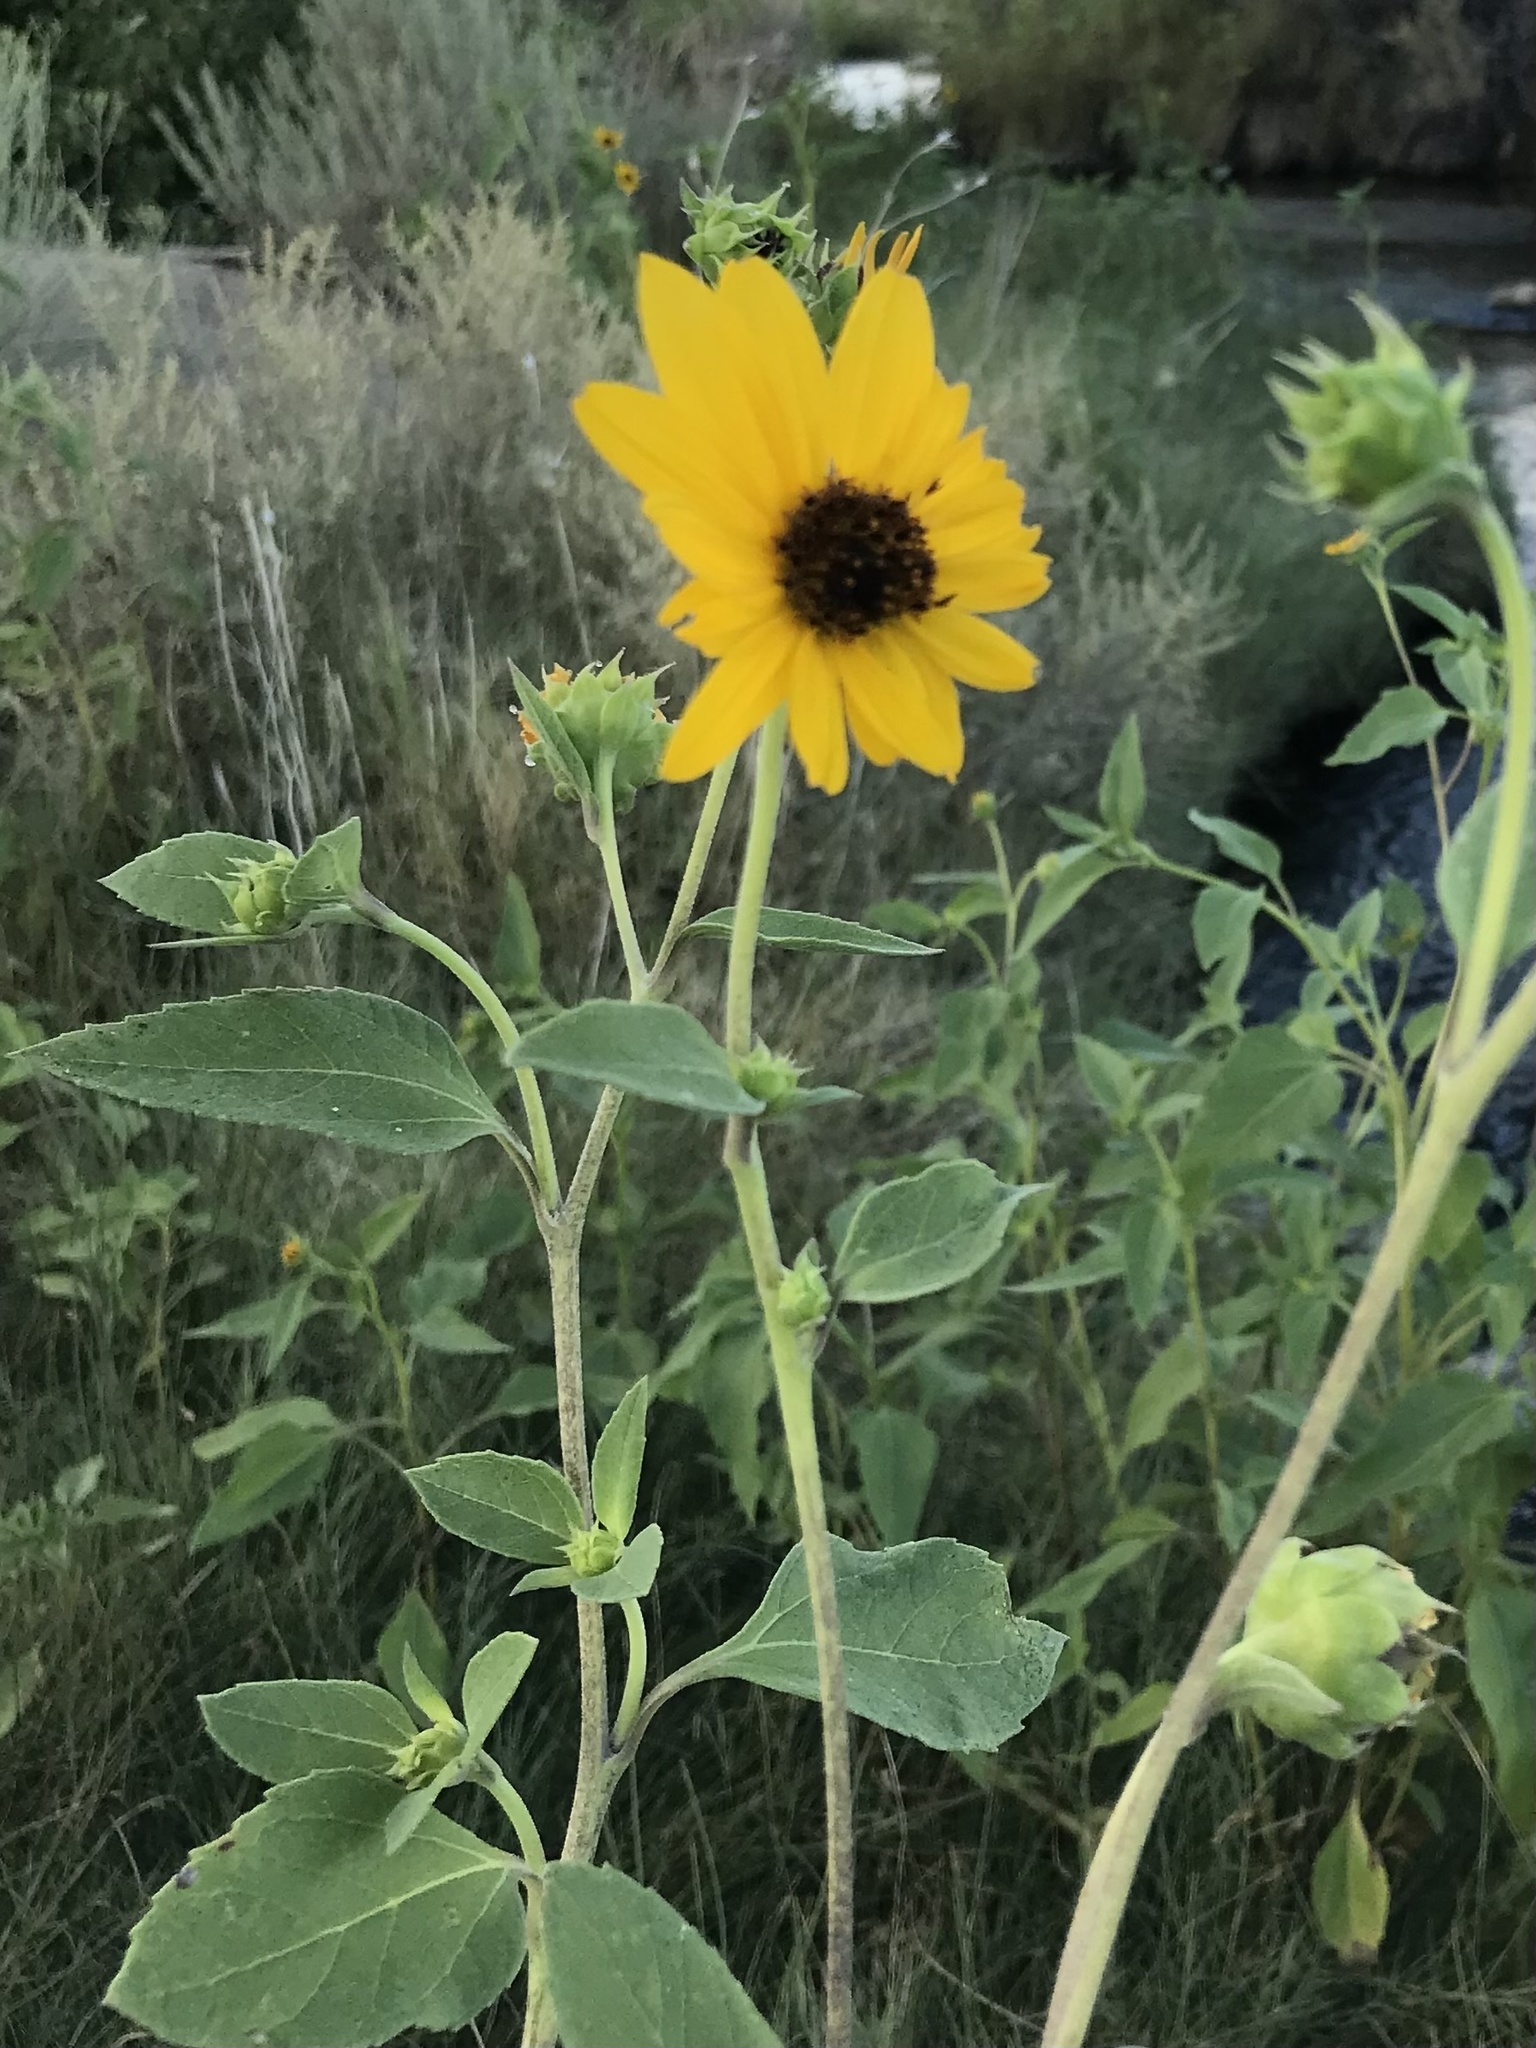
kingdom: Plantae
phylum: Tracheophyta
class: Magnoliopsida
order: Asterales
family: Asteraceae
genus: Helianthus
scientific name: Helianthus annuus
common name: Sunflower
